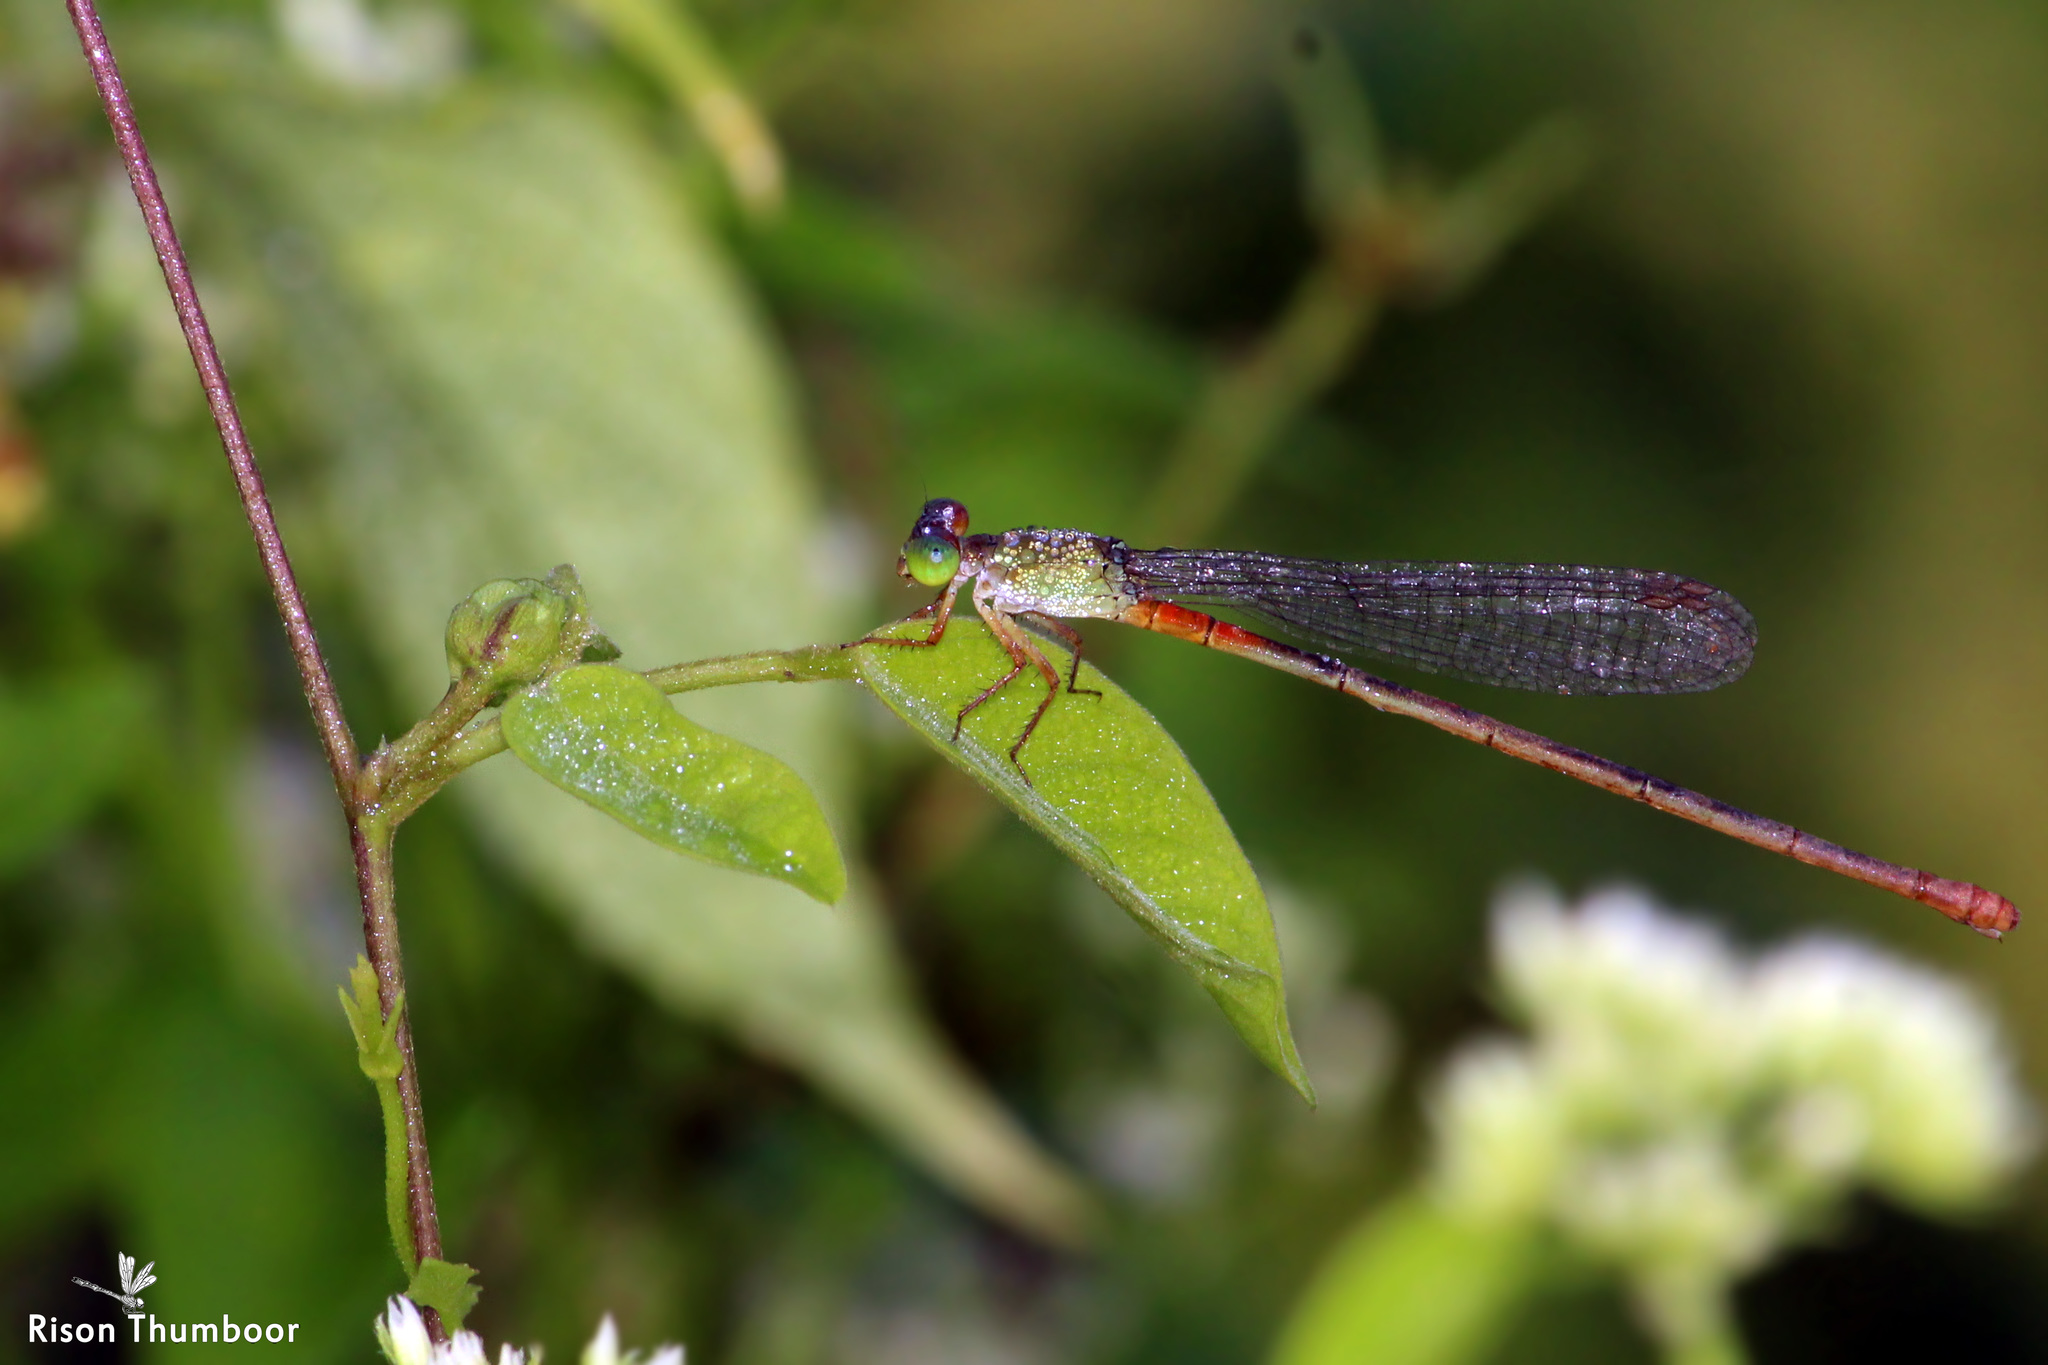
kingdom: Animalia
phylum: Arthropoda
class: Insecta
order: Odonata
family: Coenagrionidae
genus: Ceriagrion
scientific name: Ceriagrion cerinorubellum
